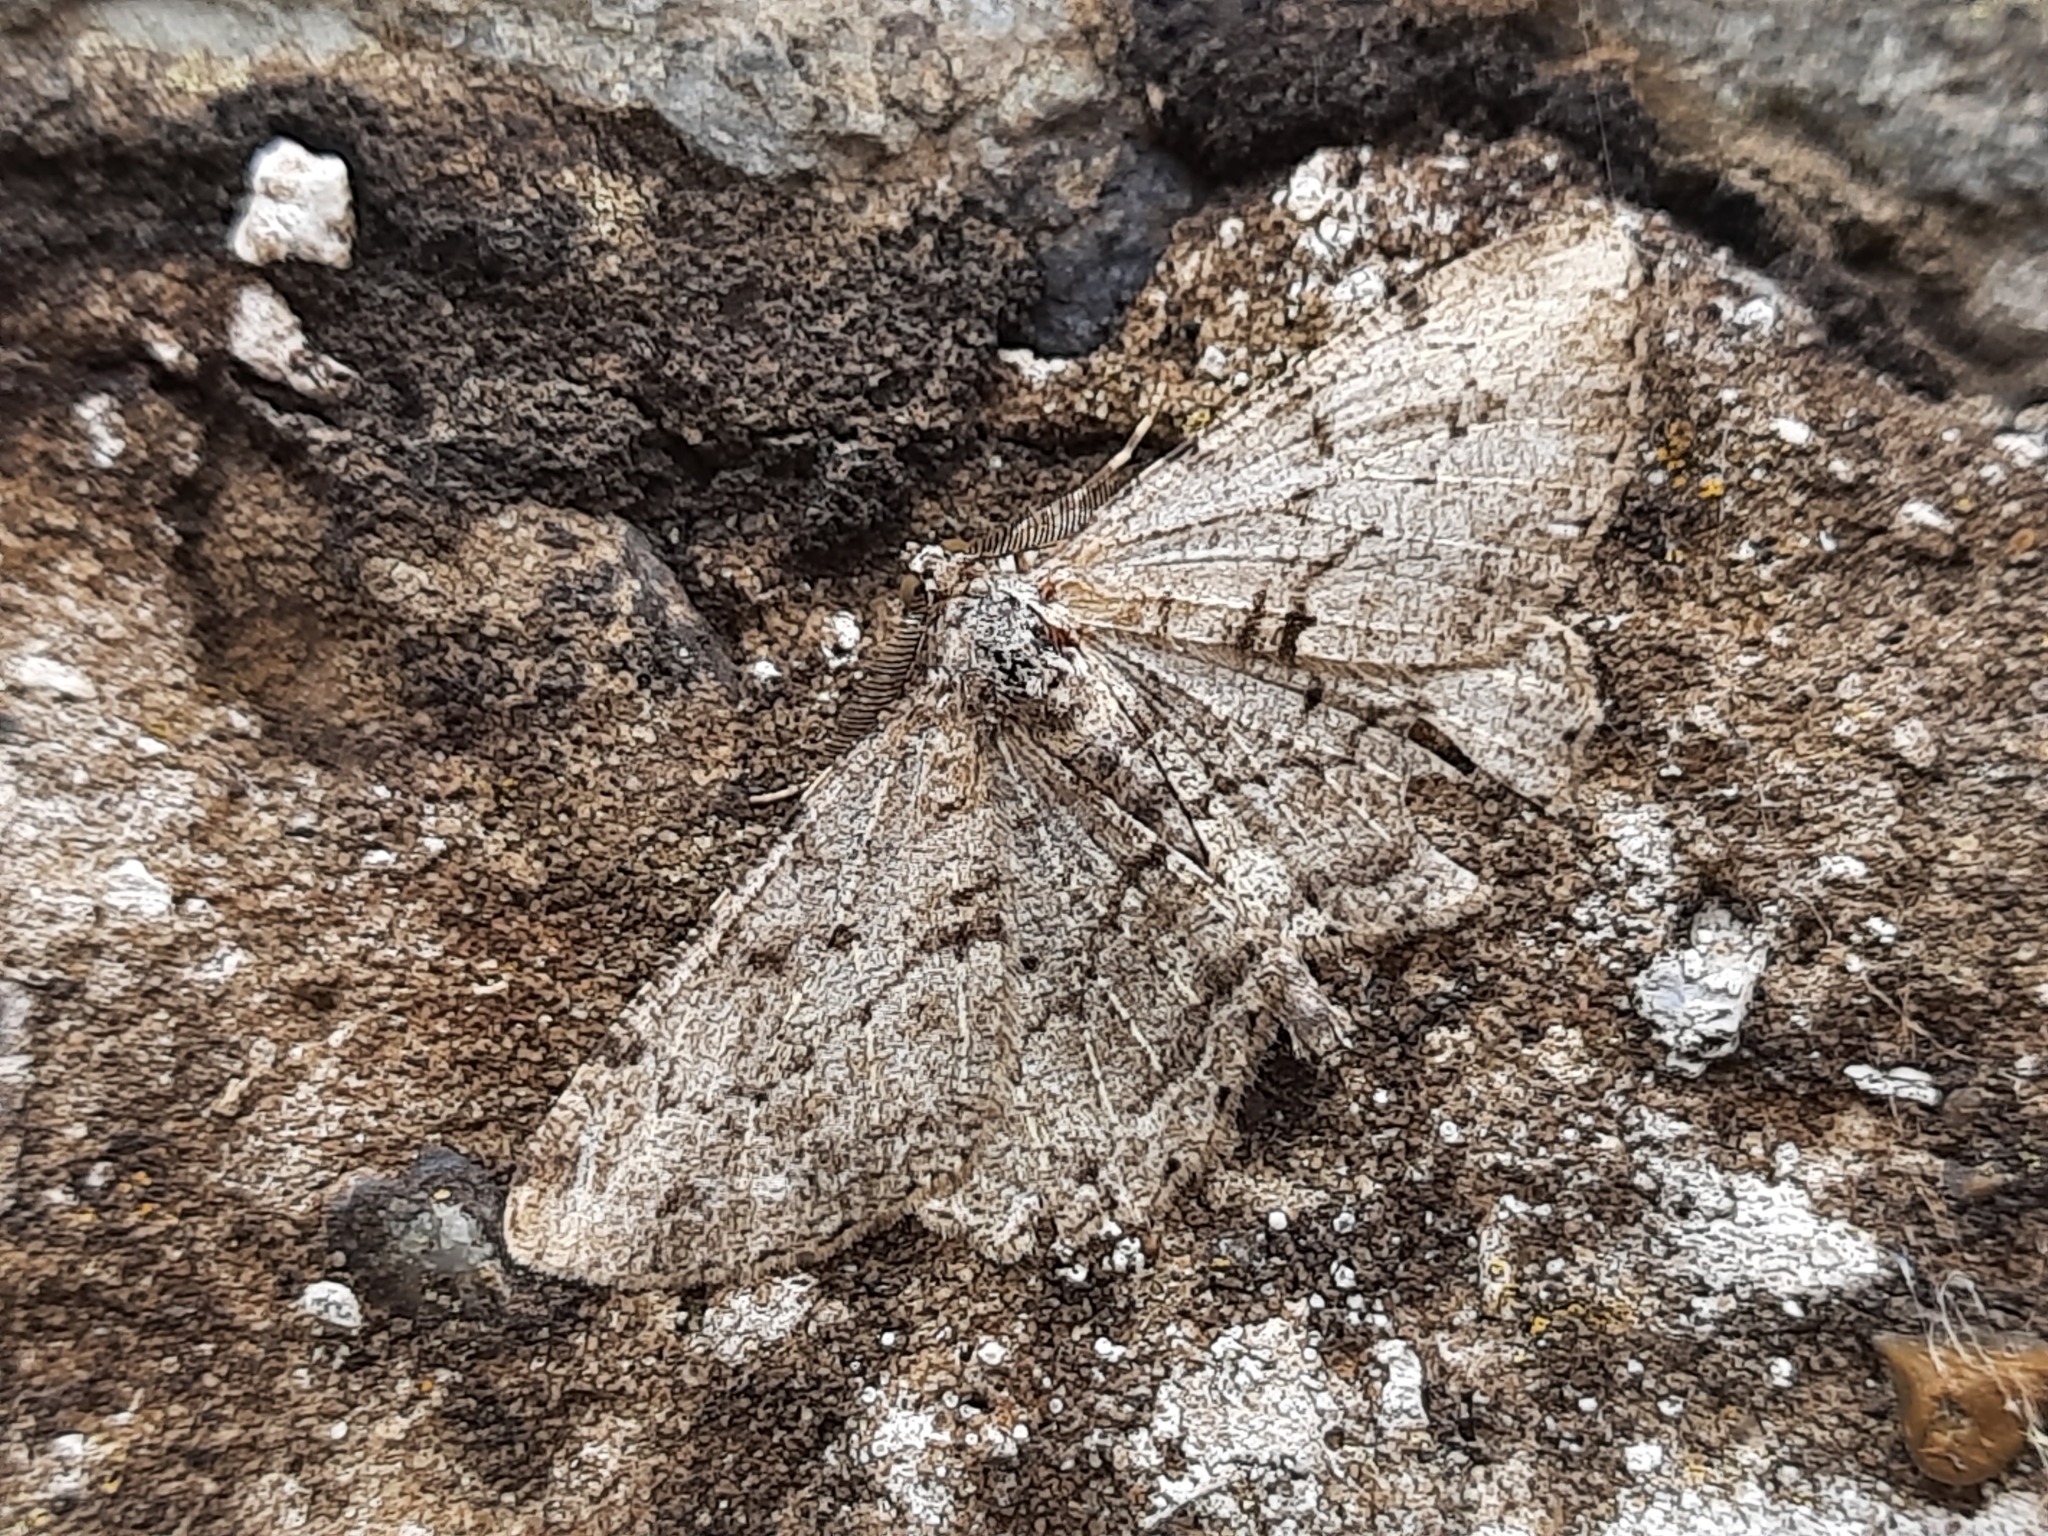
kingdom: Animalia
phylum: Arthropoda
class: Insecta
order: Lepidoptera
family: Geometridae
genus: Peribatodes
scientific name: Peribatodes rhomboidaria
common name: Willow beauty
